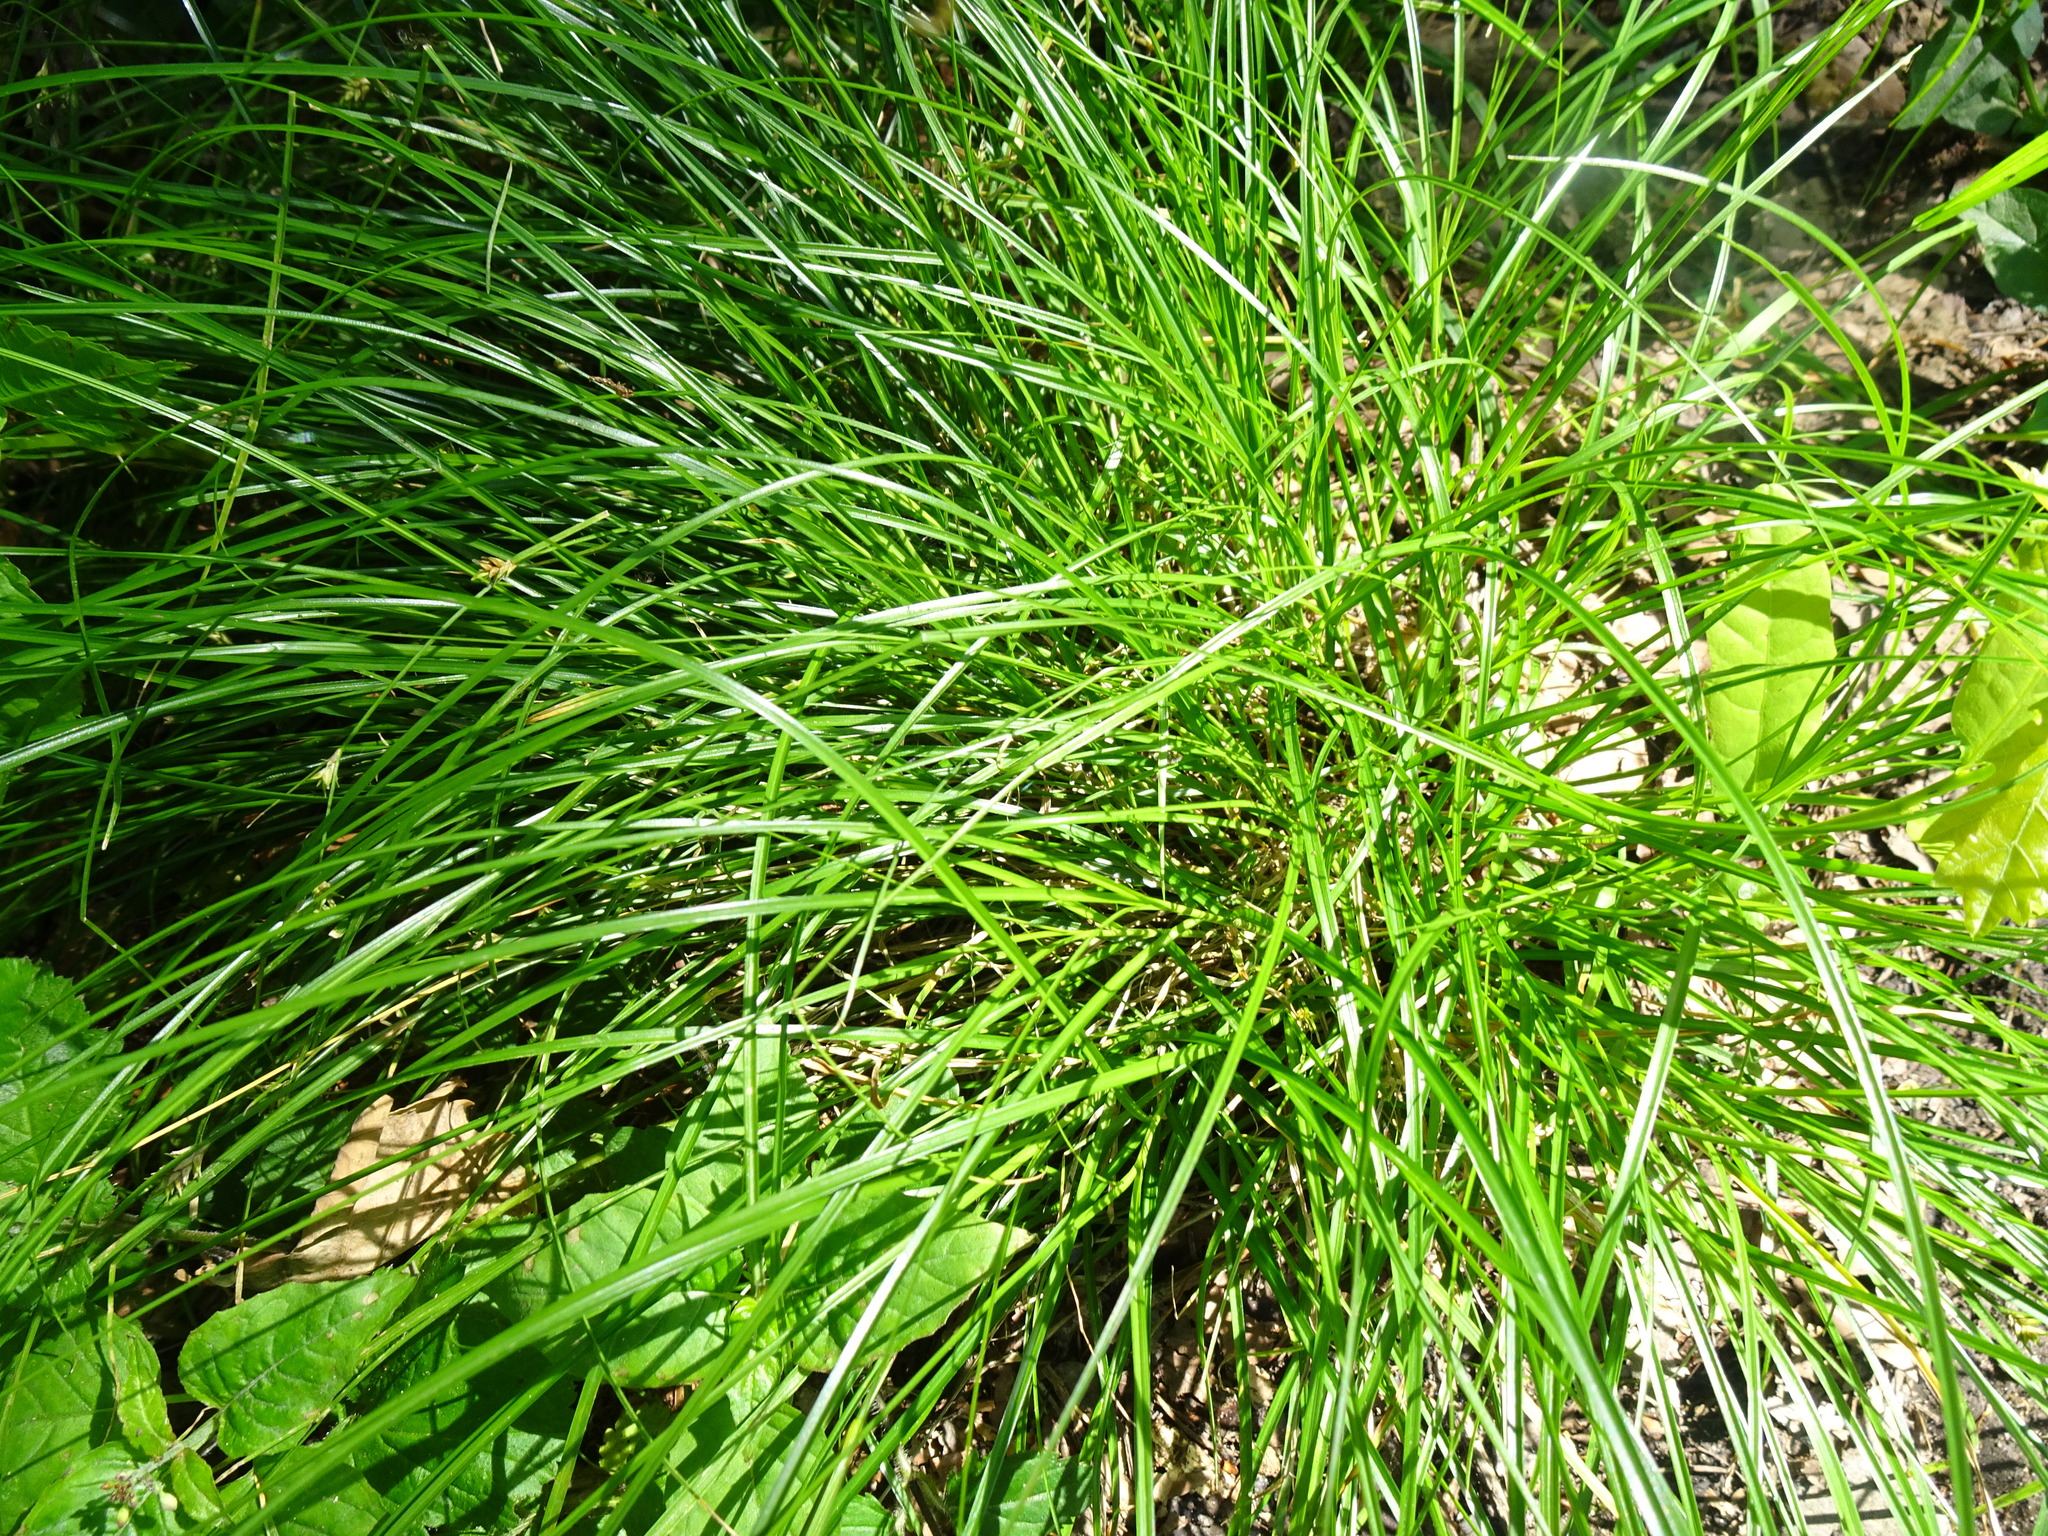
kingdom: Plantae
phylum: Tracheophyta
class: Liliopsida
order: Poales
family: Cyperaceae
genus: Carex
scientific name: Carex remota
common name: Remote sedge
